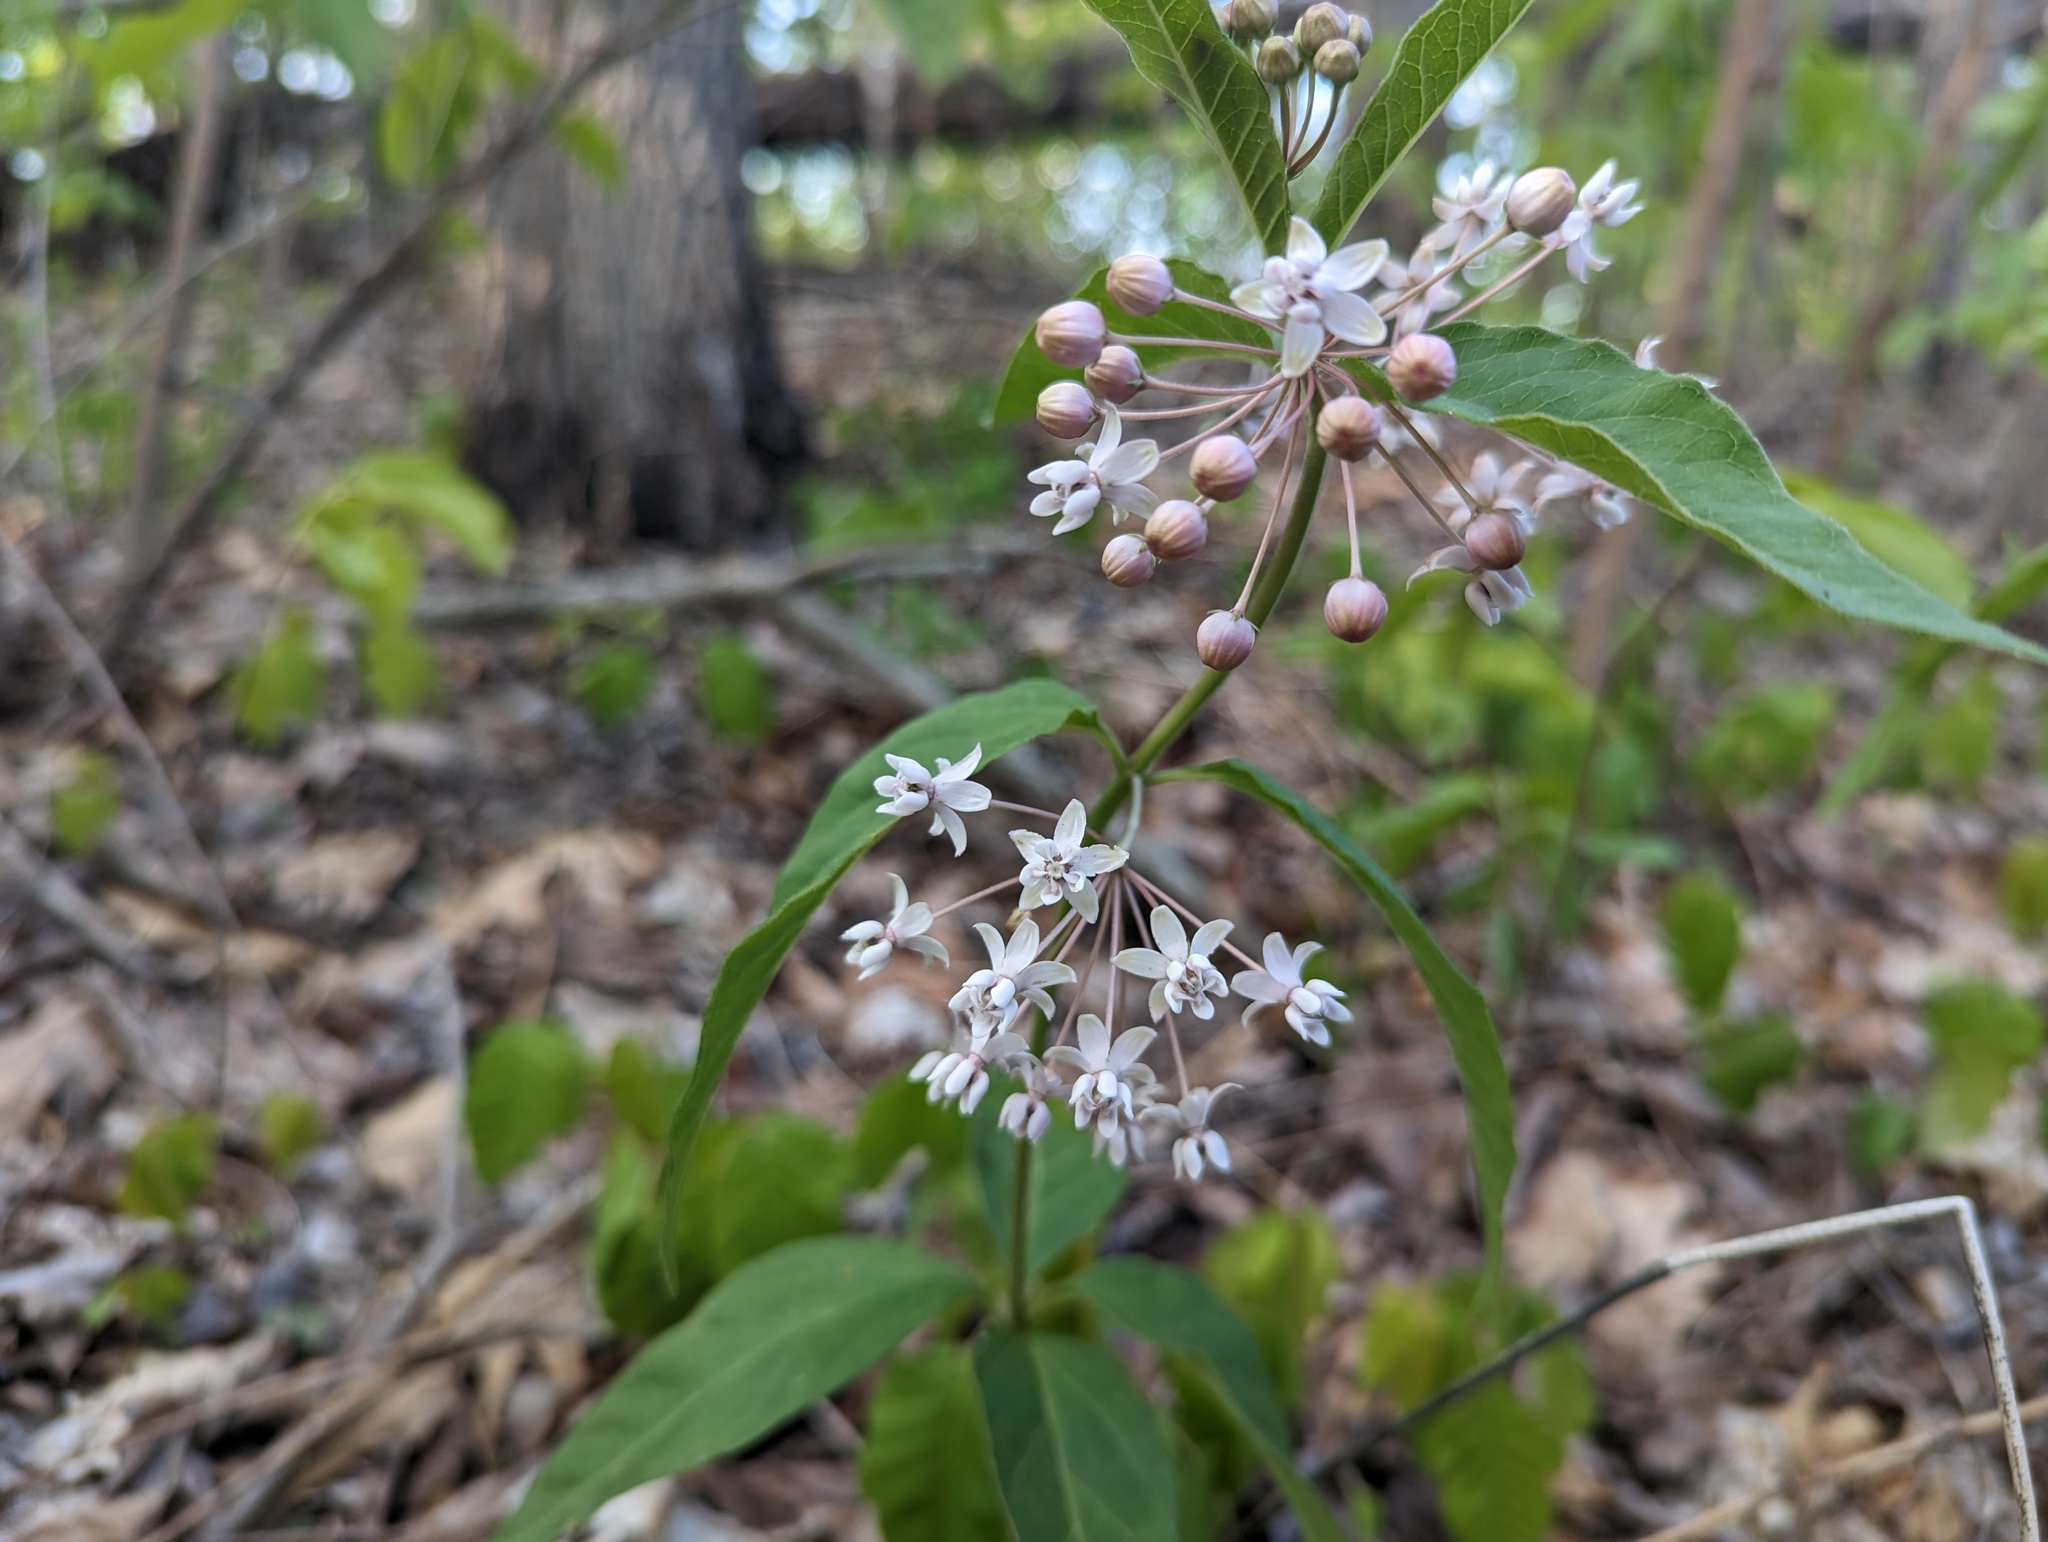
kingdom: Plantae
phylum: Tracheophyta
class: Magnoliopsida
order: Gentianales
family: Apocynaceae
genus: Asclepias
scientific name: Asclepias quadrifolia
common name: Whorled milkweed
